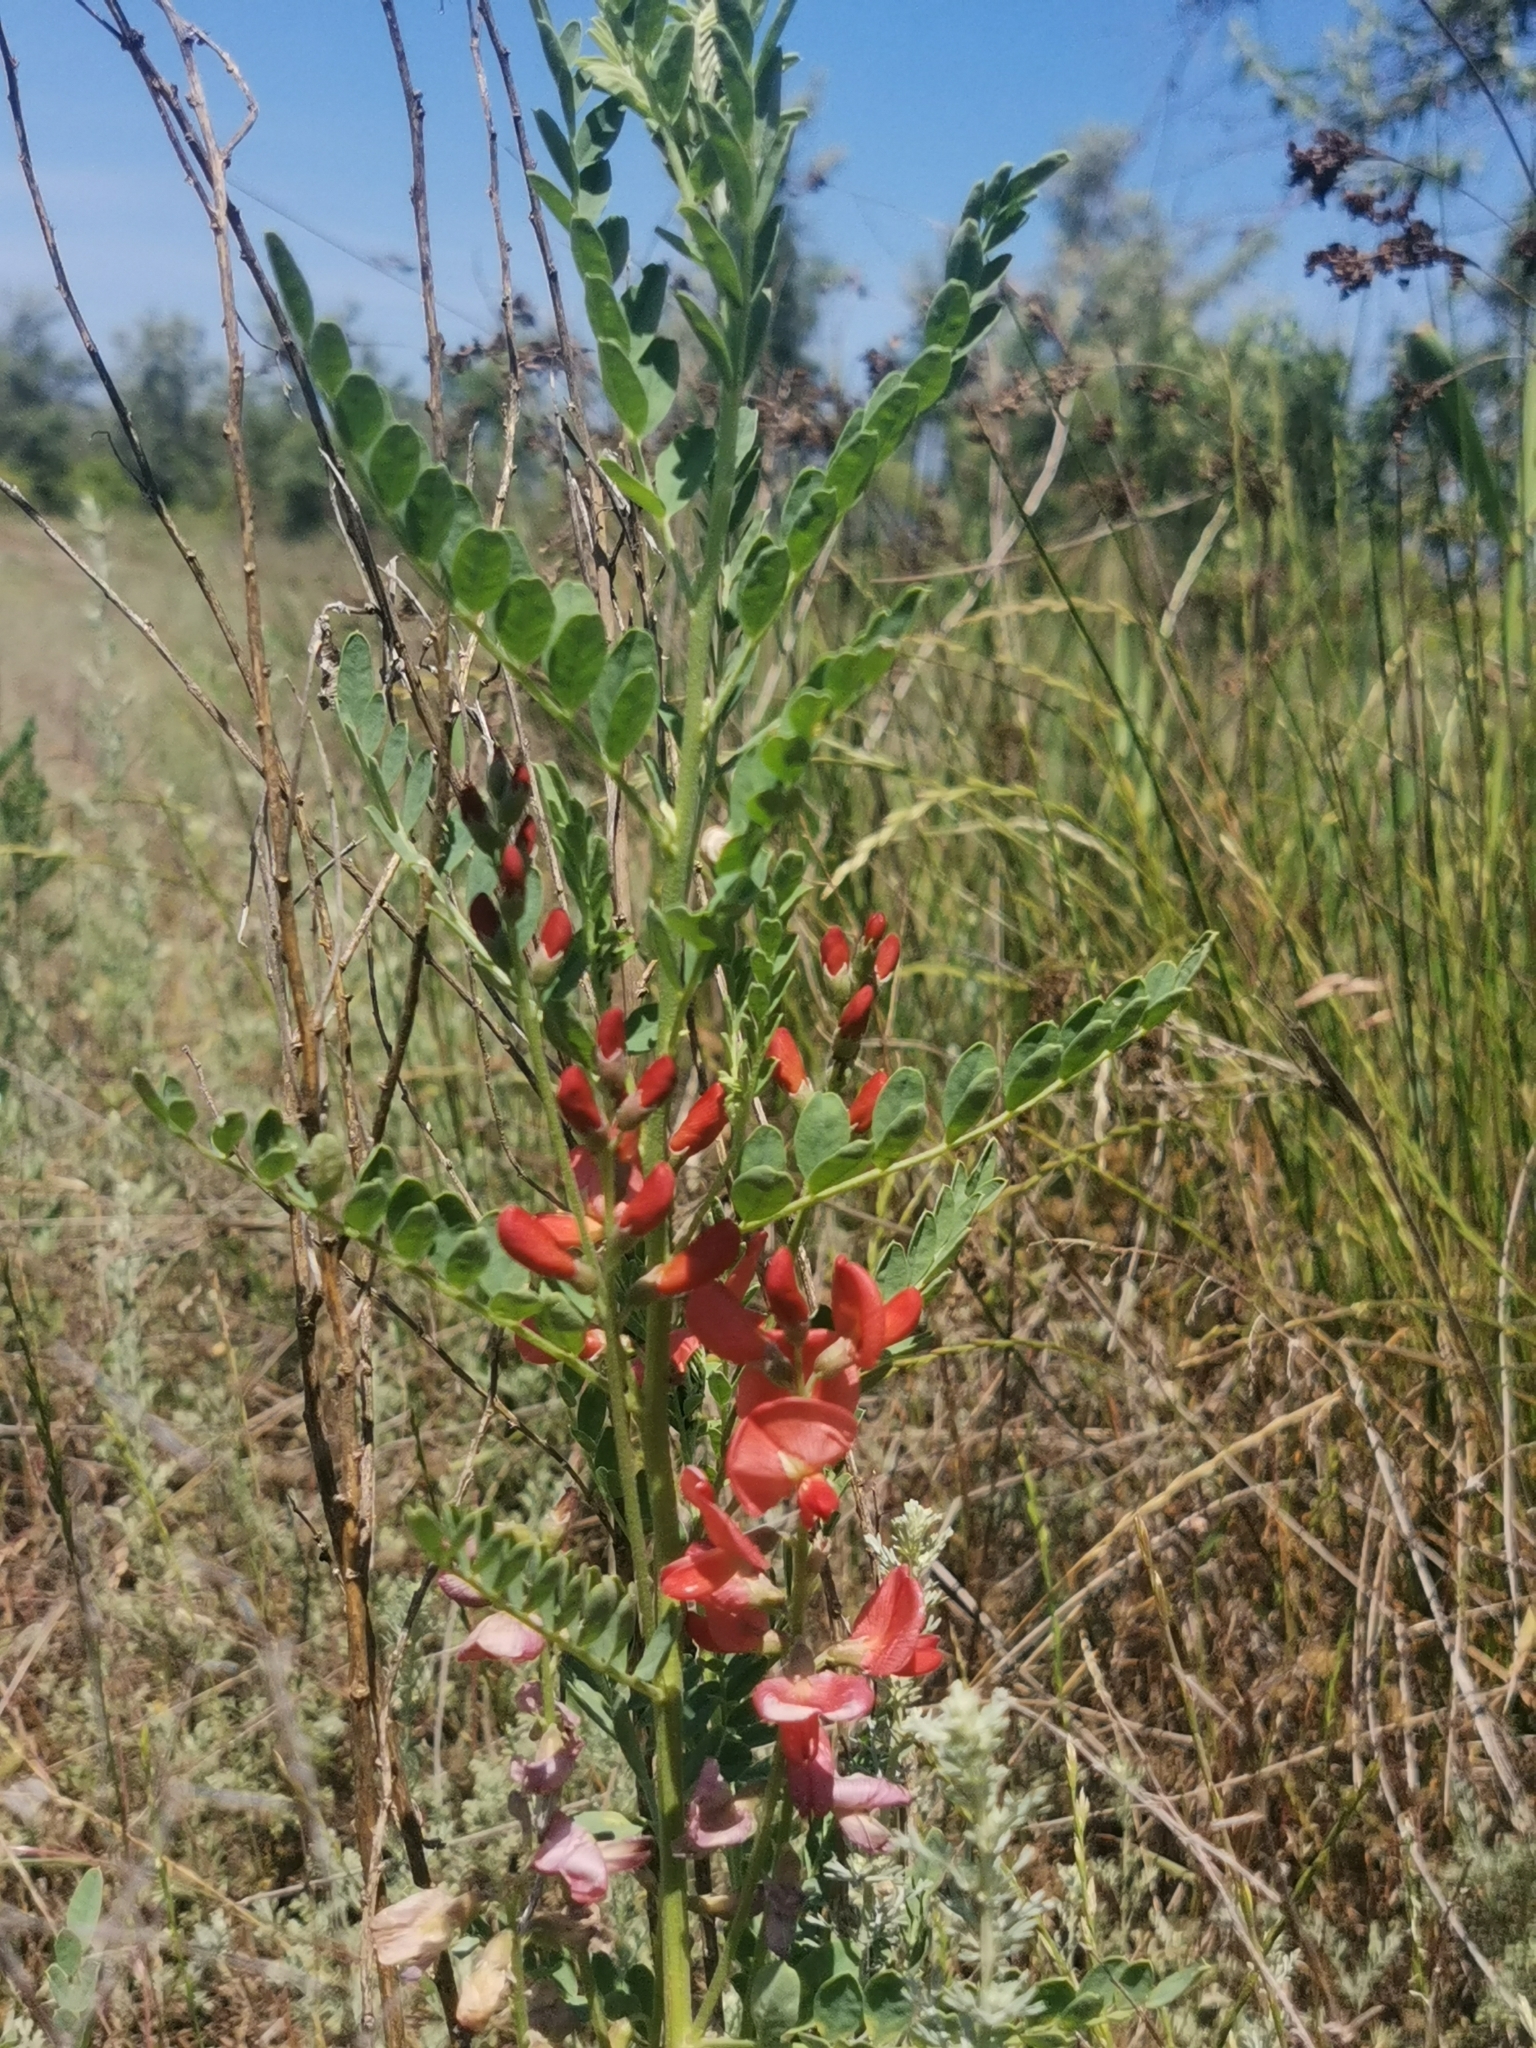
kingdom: Plantae
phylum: Tracheophyta
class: Magnoliopsida
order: Fabales
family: Fabaceae
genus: Sphaerophysa
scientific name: Sphaerophysa salsula
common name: Alkali swainsonpea
